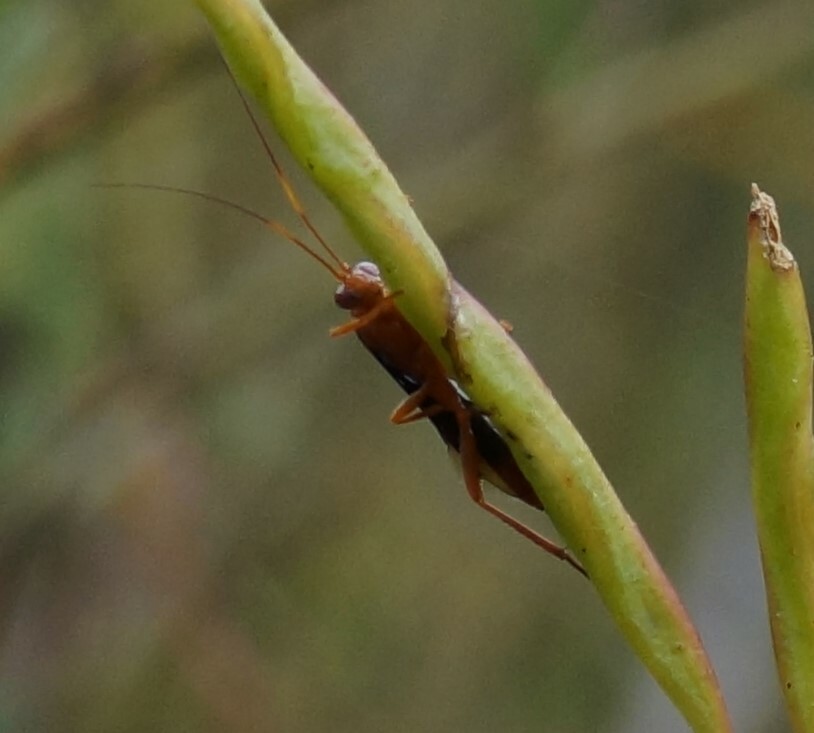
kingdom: Animalia
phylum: Arthropoda
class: Insecta
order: Hymenoptera
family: Ichneumonidae
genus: Lissopimpla
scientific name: Lissopimpla excelsa
